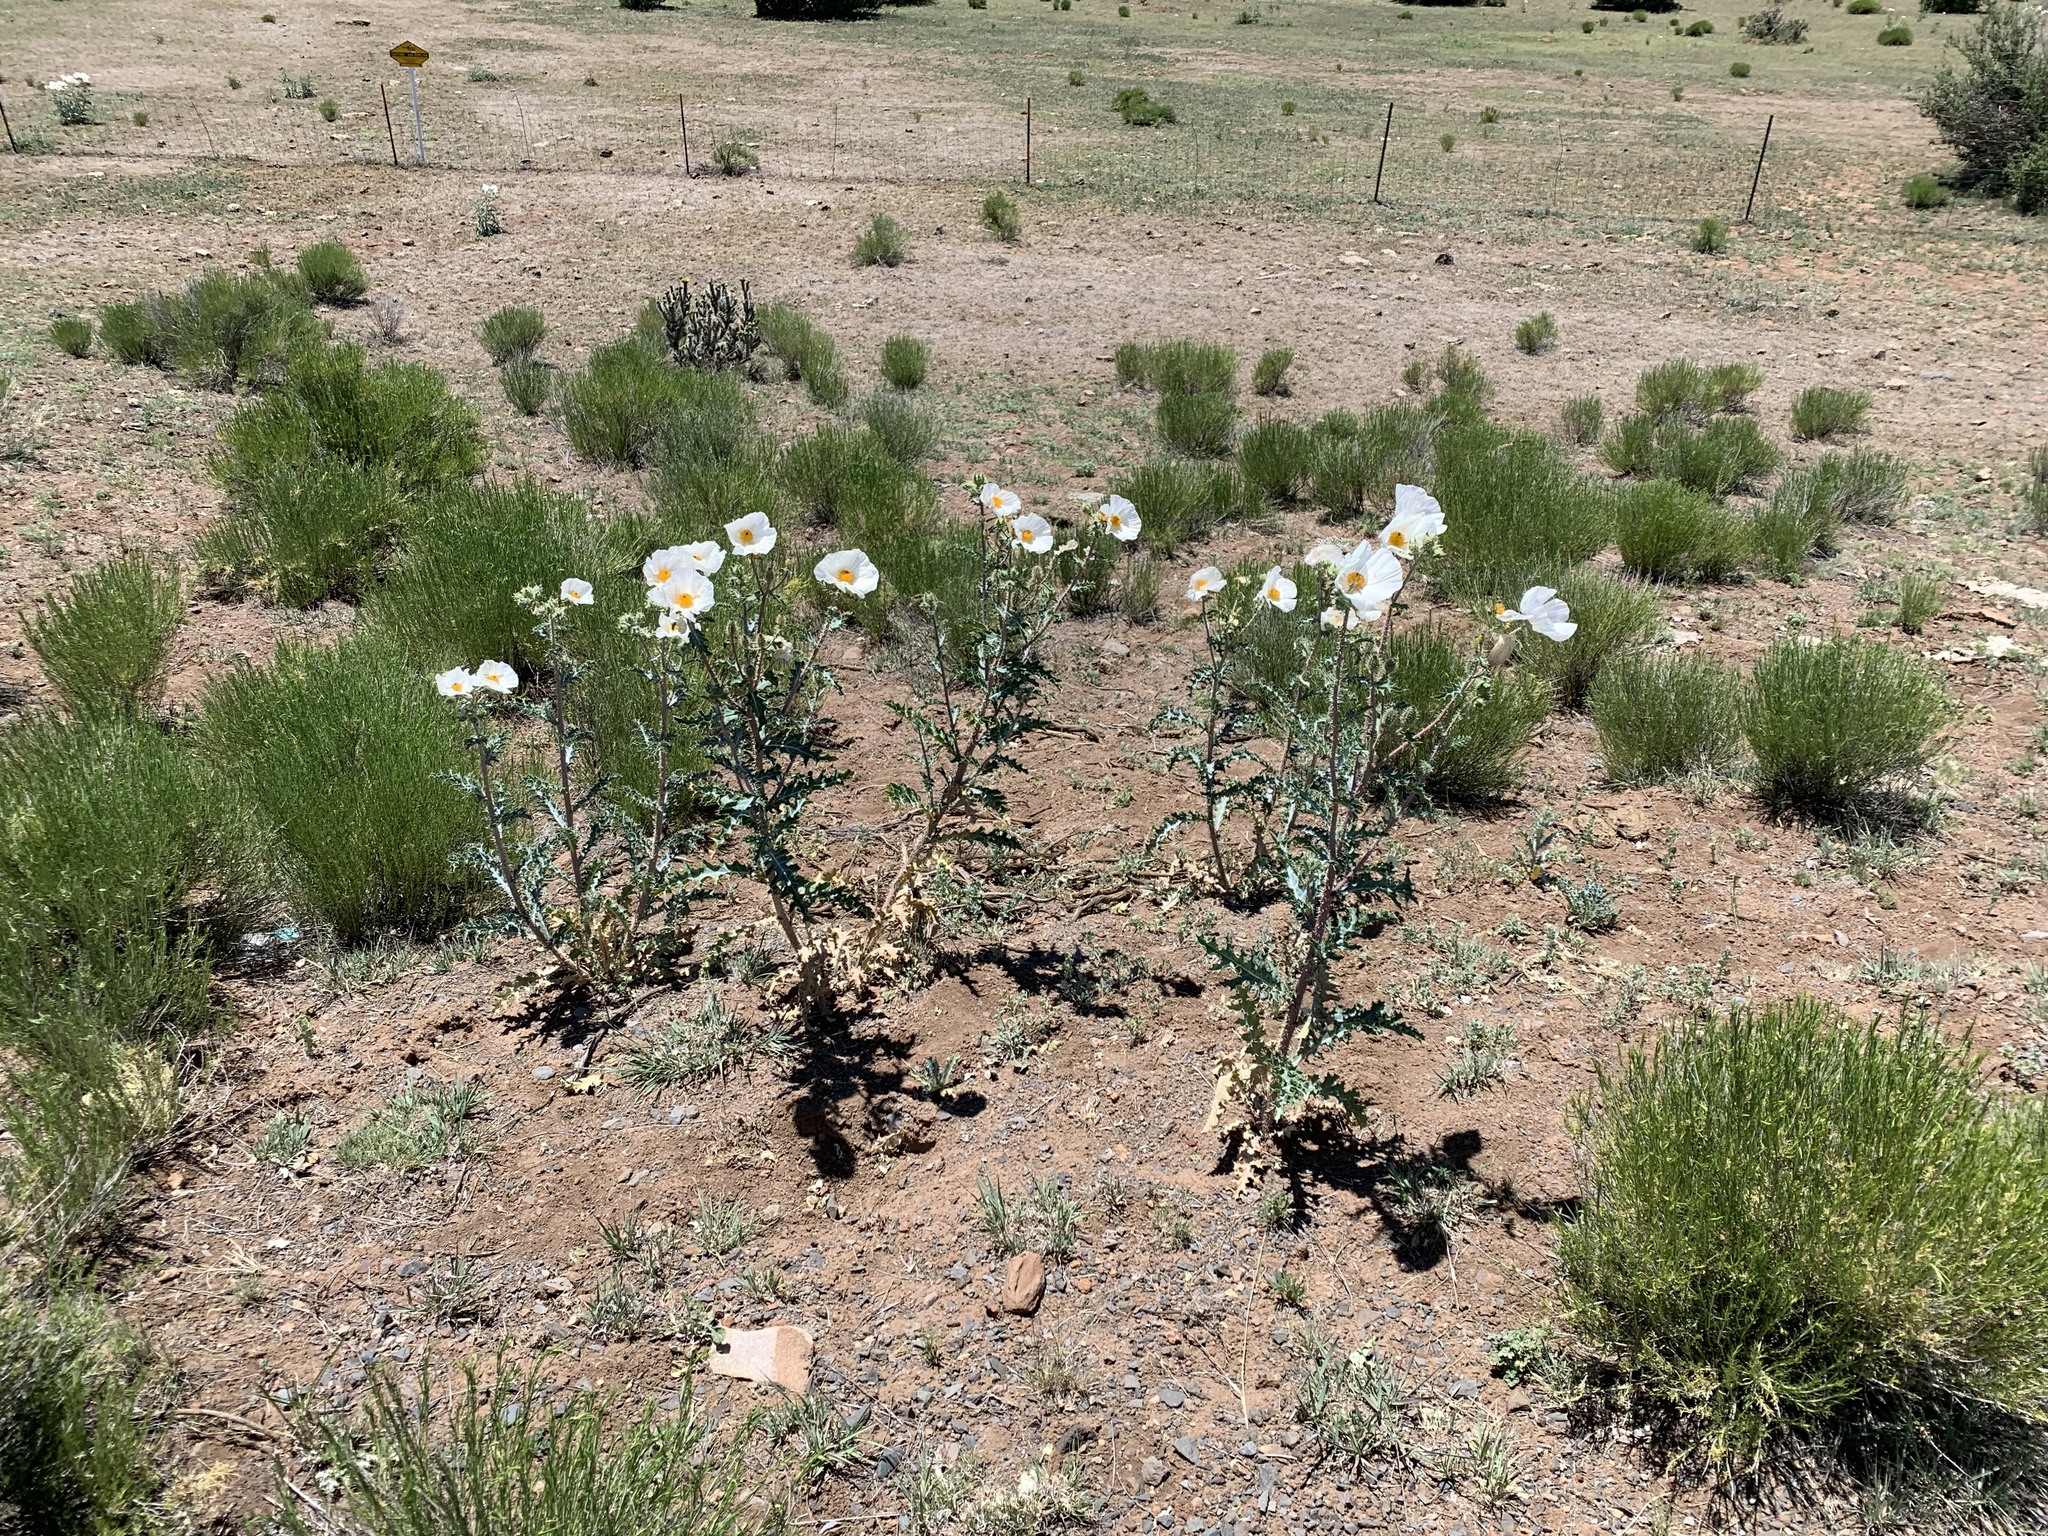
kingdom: Plantae
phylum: Tracheophyta
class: Magnoliopsida
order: Ranunculales
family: Papaveraceae
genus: Argemone
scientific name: Argemone pleiacantha
